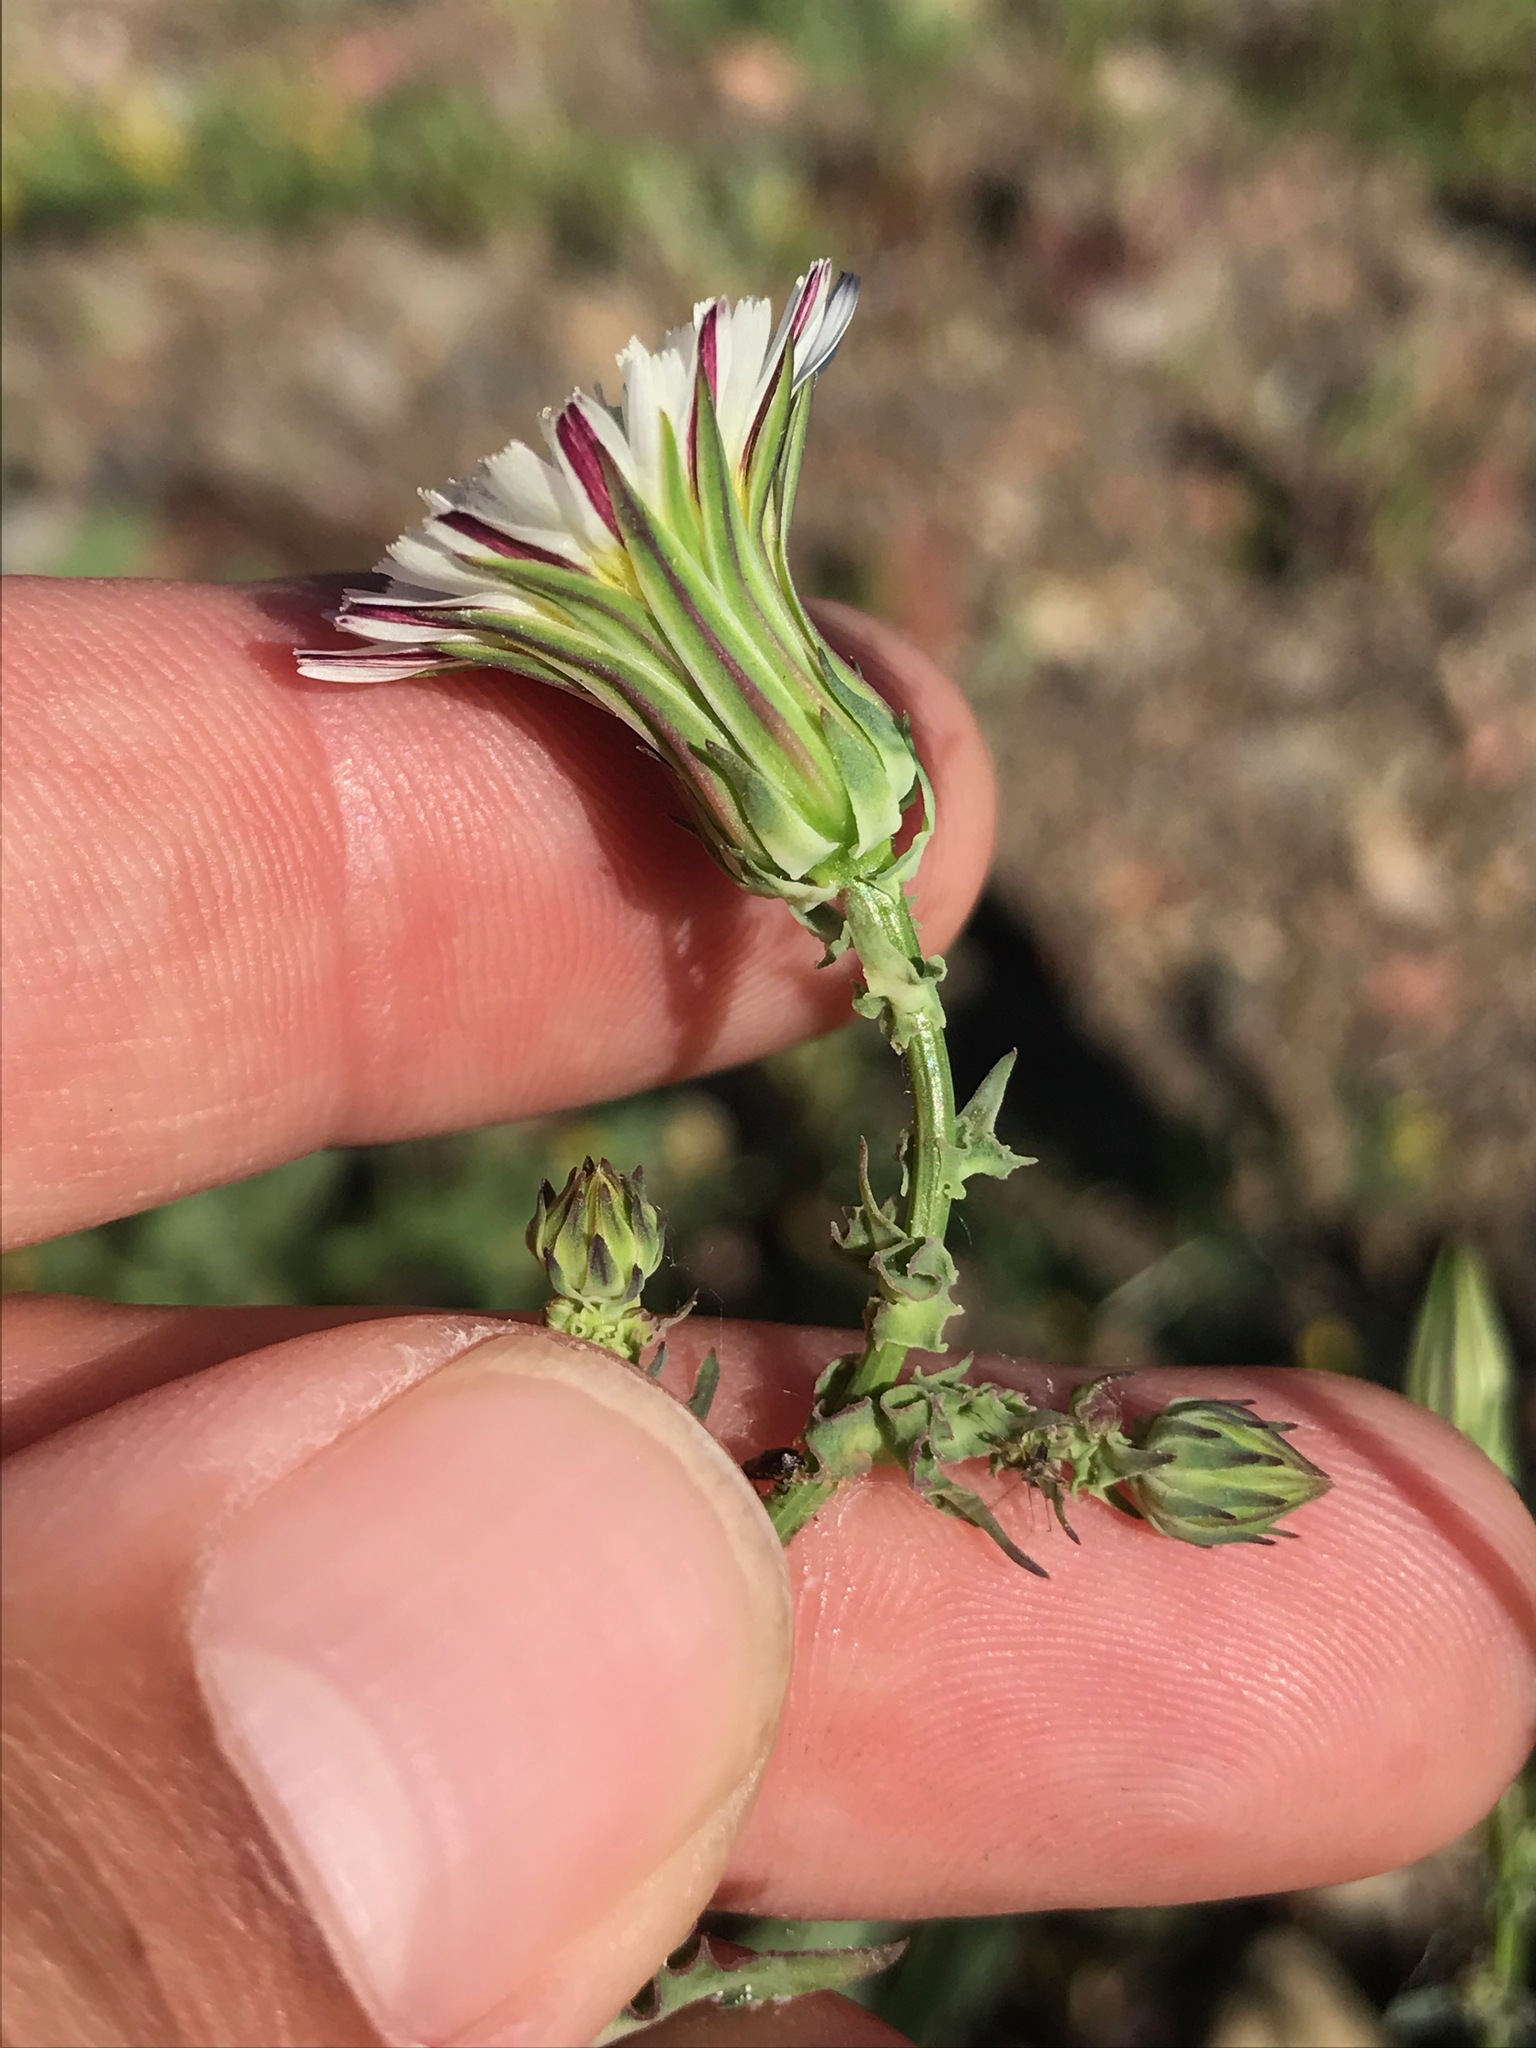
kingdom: Plantae
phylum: Tracheophyta
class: Magnoliopsida
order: Asterales
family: Asteraceae
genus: Rafinesquia
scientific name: Rafinesquia californica
